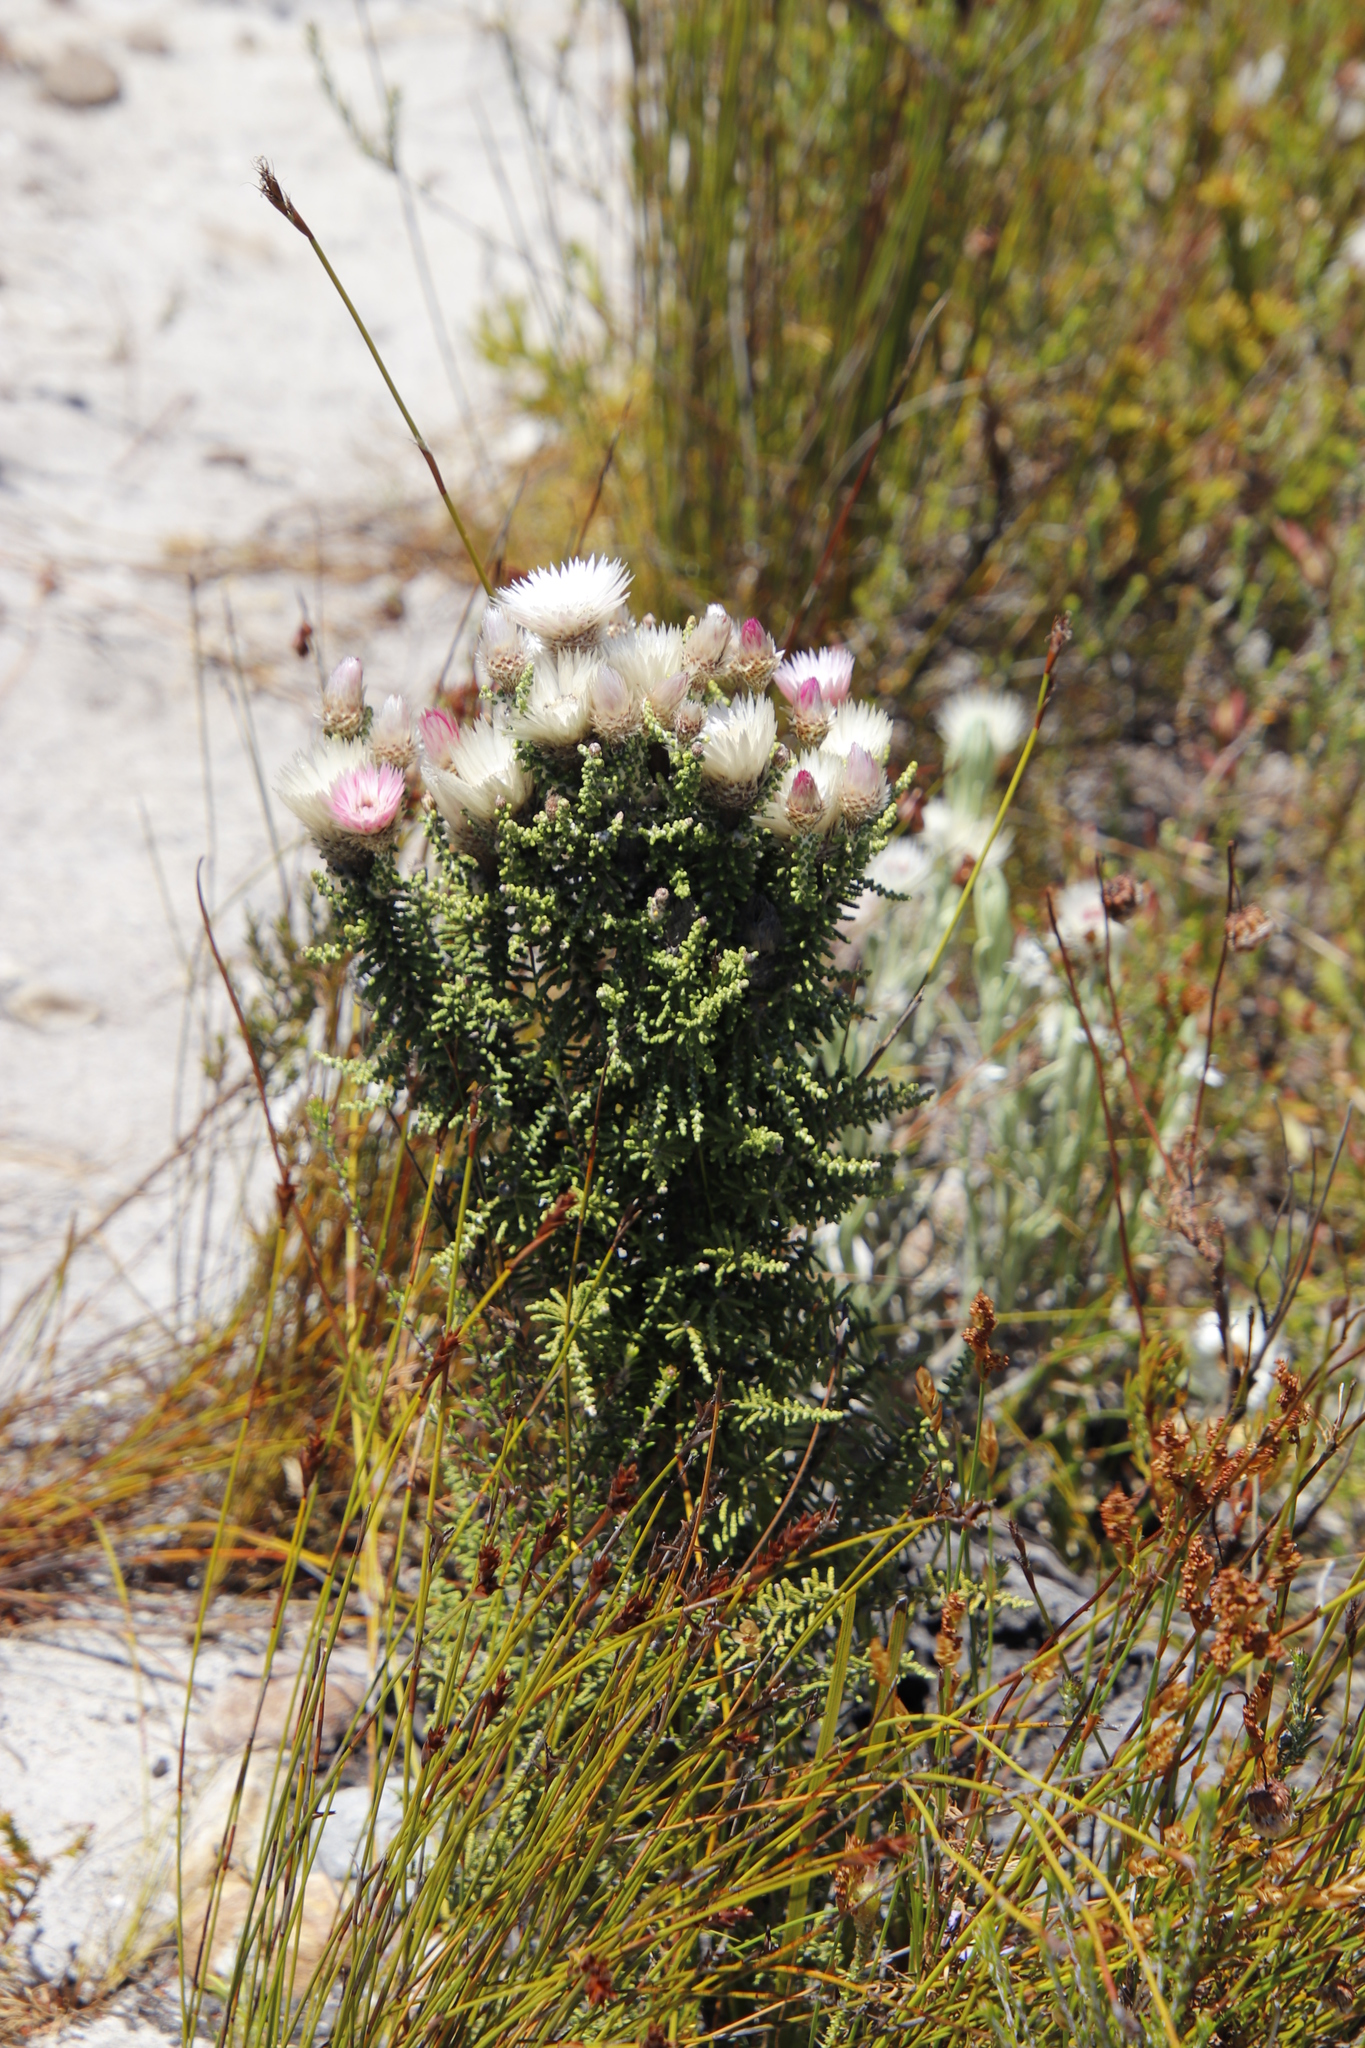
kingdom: Plantae
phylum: Tracheophyta
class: Magnoliopsida
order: Asterales
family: Asteraceae
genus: Phaenocoma
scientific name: Phaenocoma prolifera
